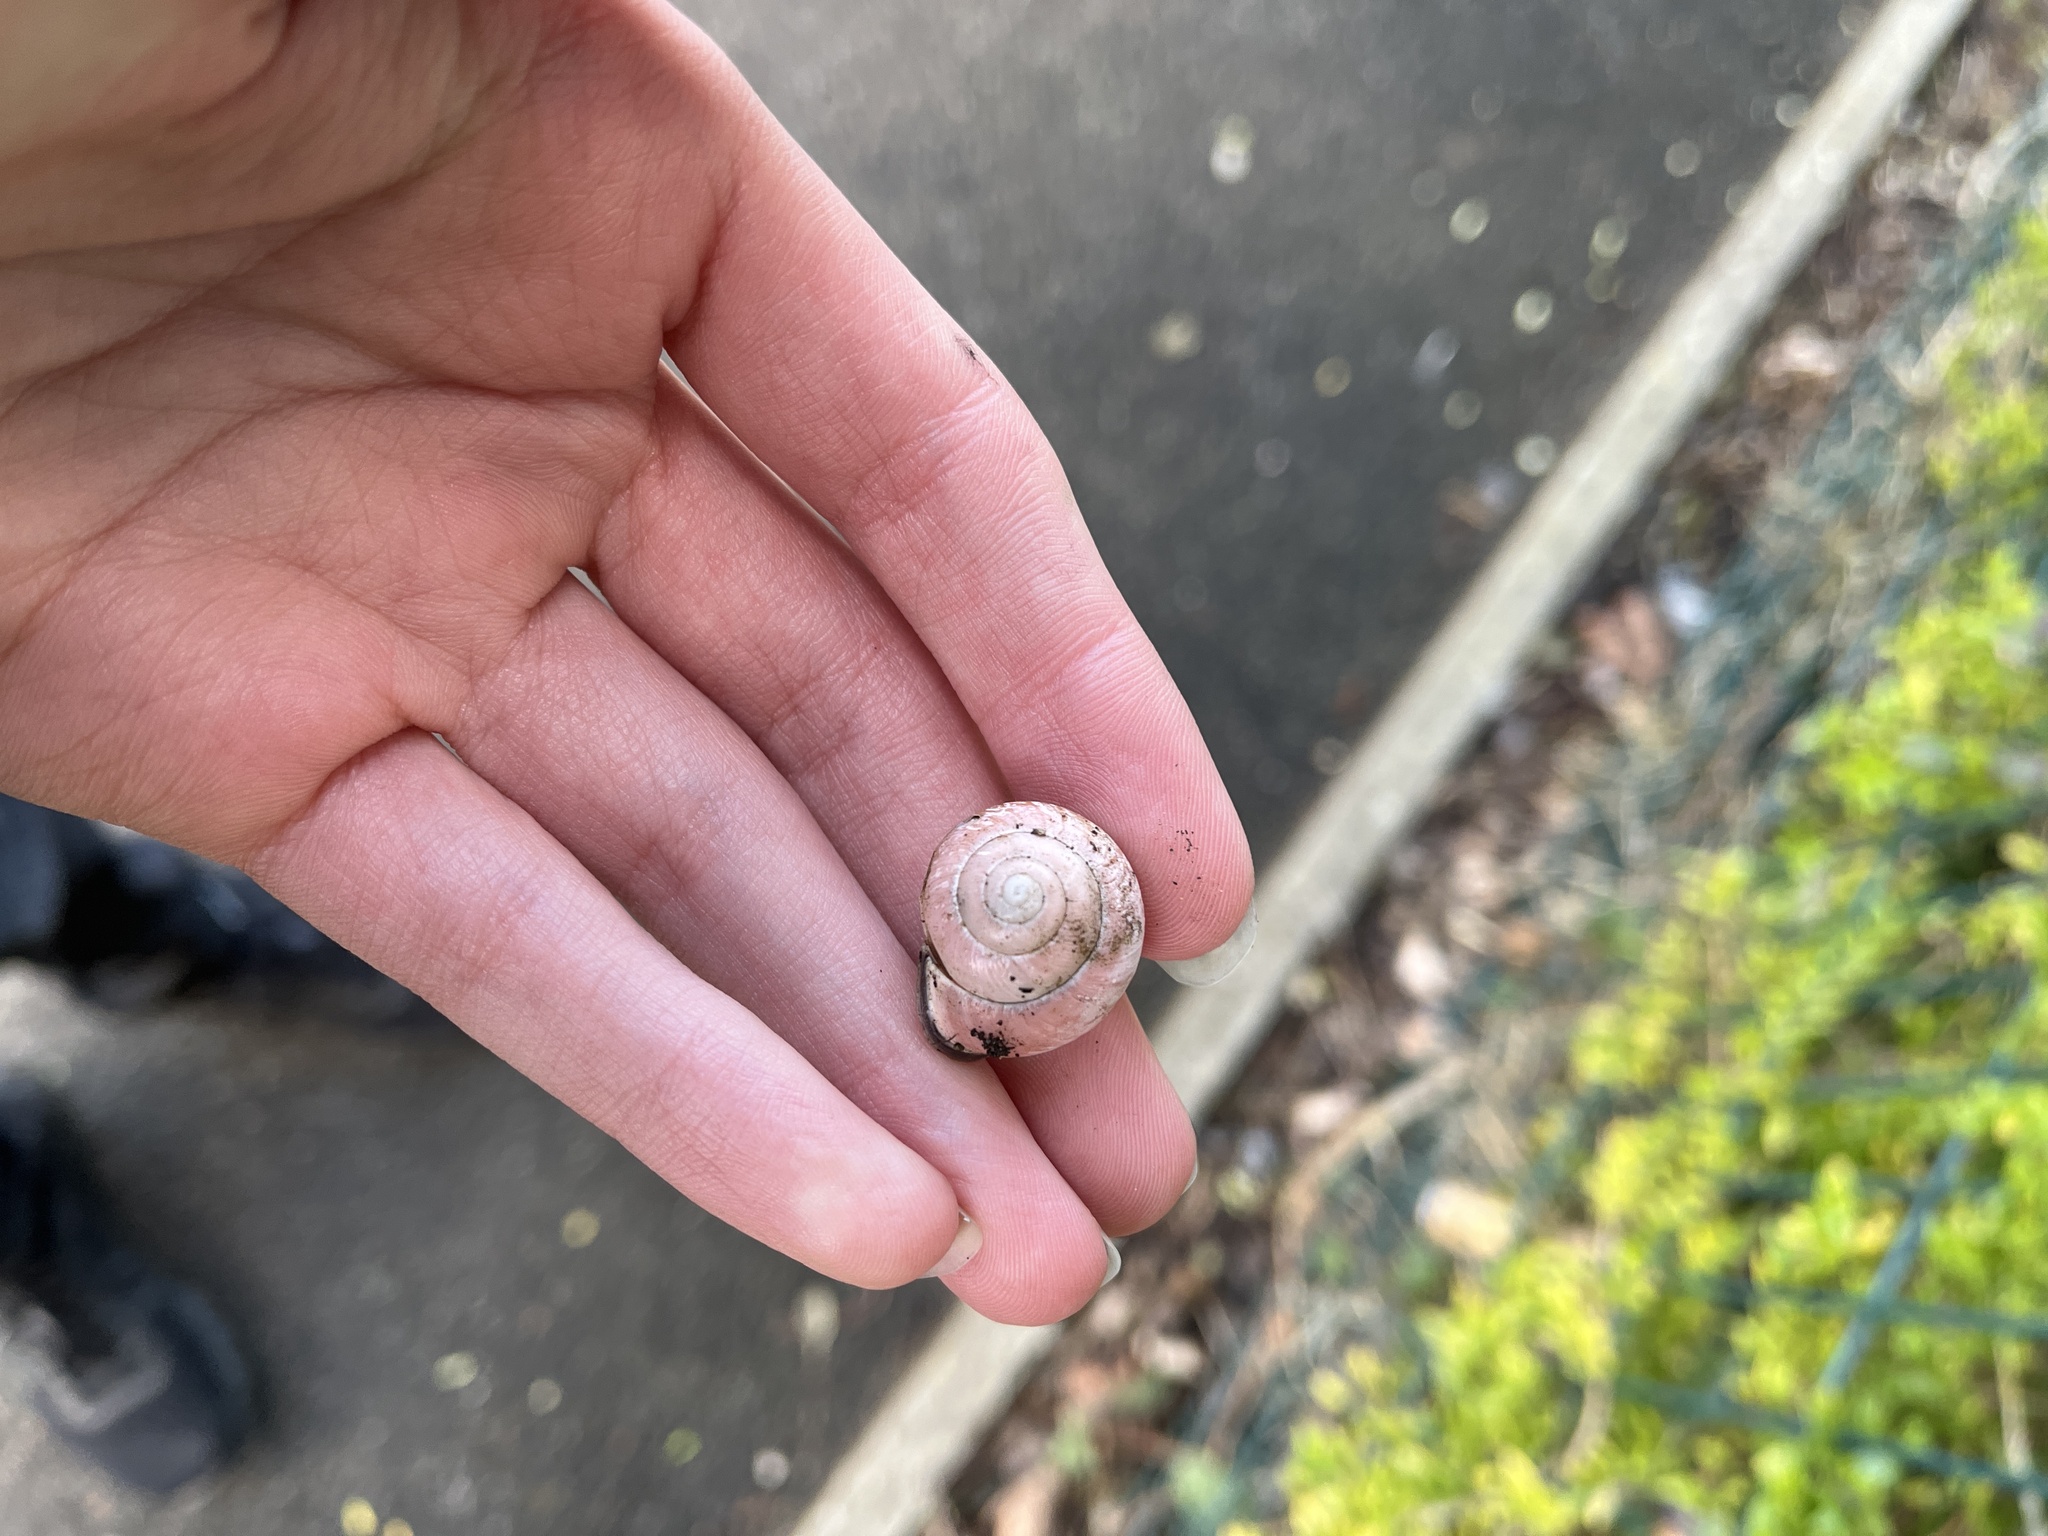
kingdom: Animalia
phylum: Mollusca
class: Gastropoda
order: Stylommatophora
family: Helicidae
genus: Cepaea
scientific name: Cepaea nemoralis
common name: Grovesnail
